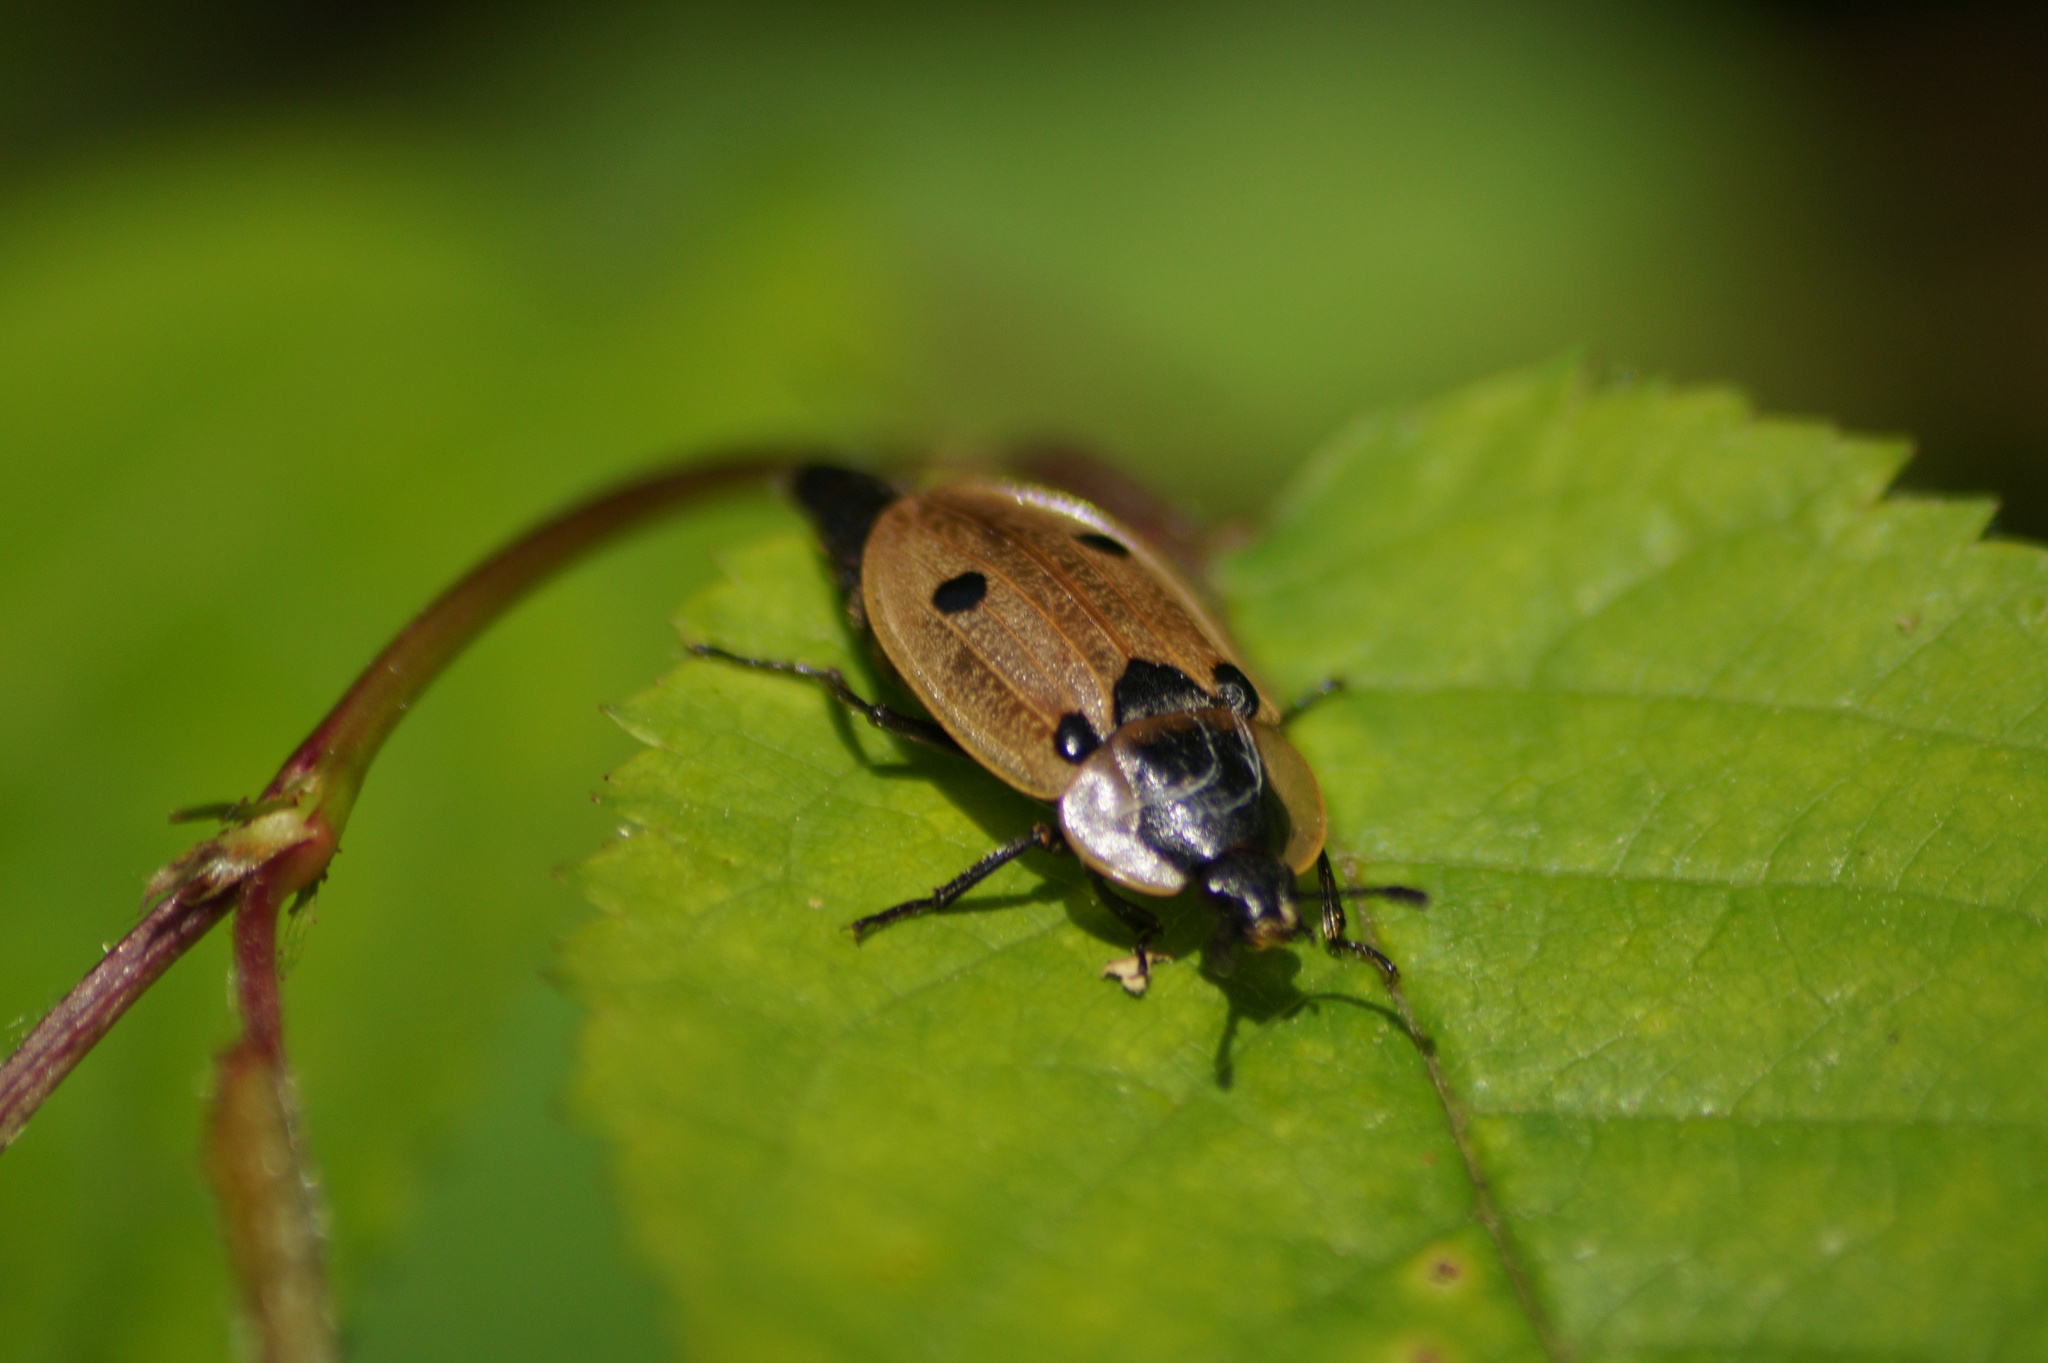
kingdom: Animalia
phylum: Arthropoda
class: Insecta
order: Coleoptera
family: Staphylinidae
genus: Dendroxena
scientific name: Dendroxena quadrimaculata
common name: Carrion beetle
